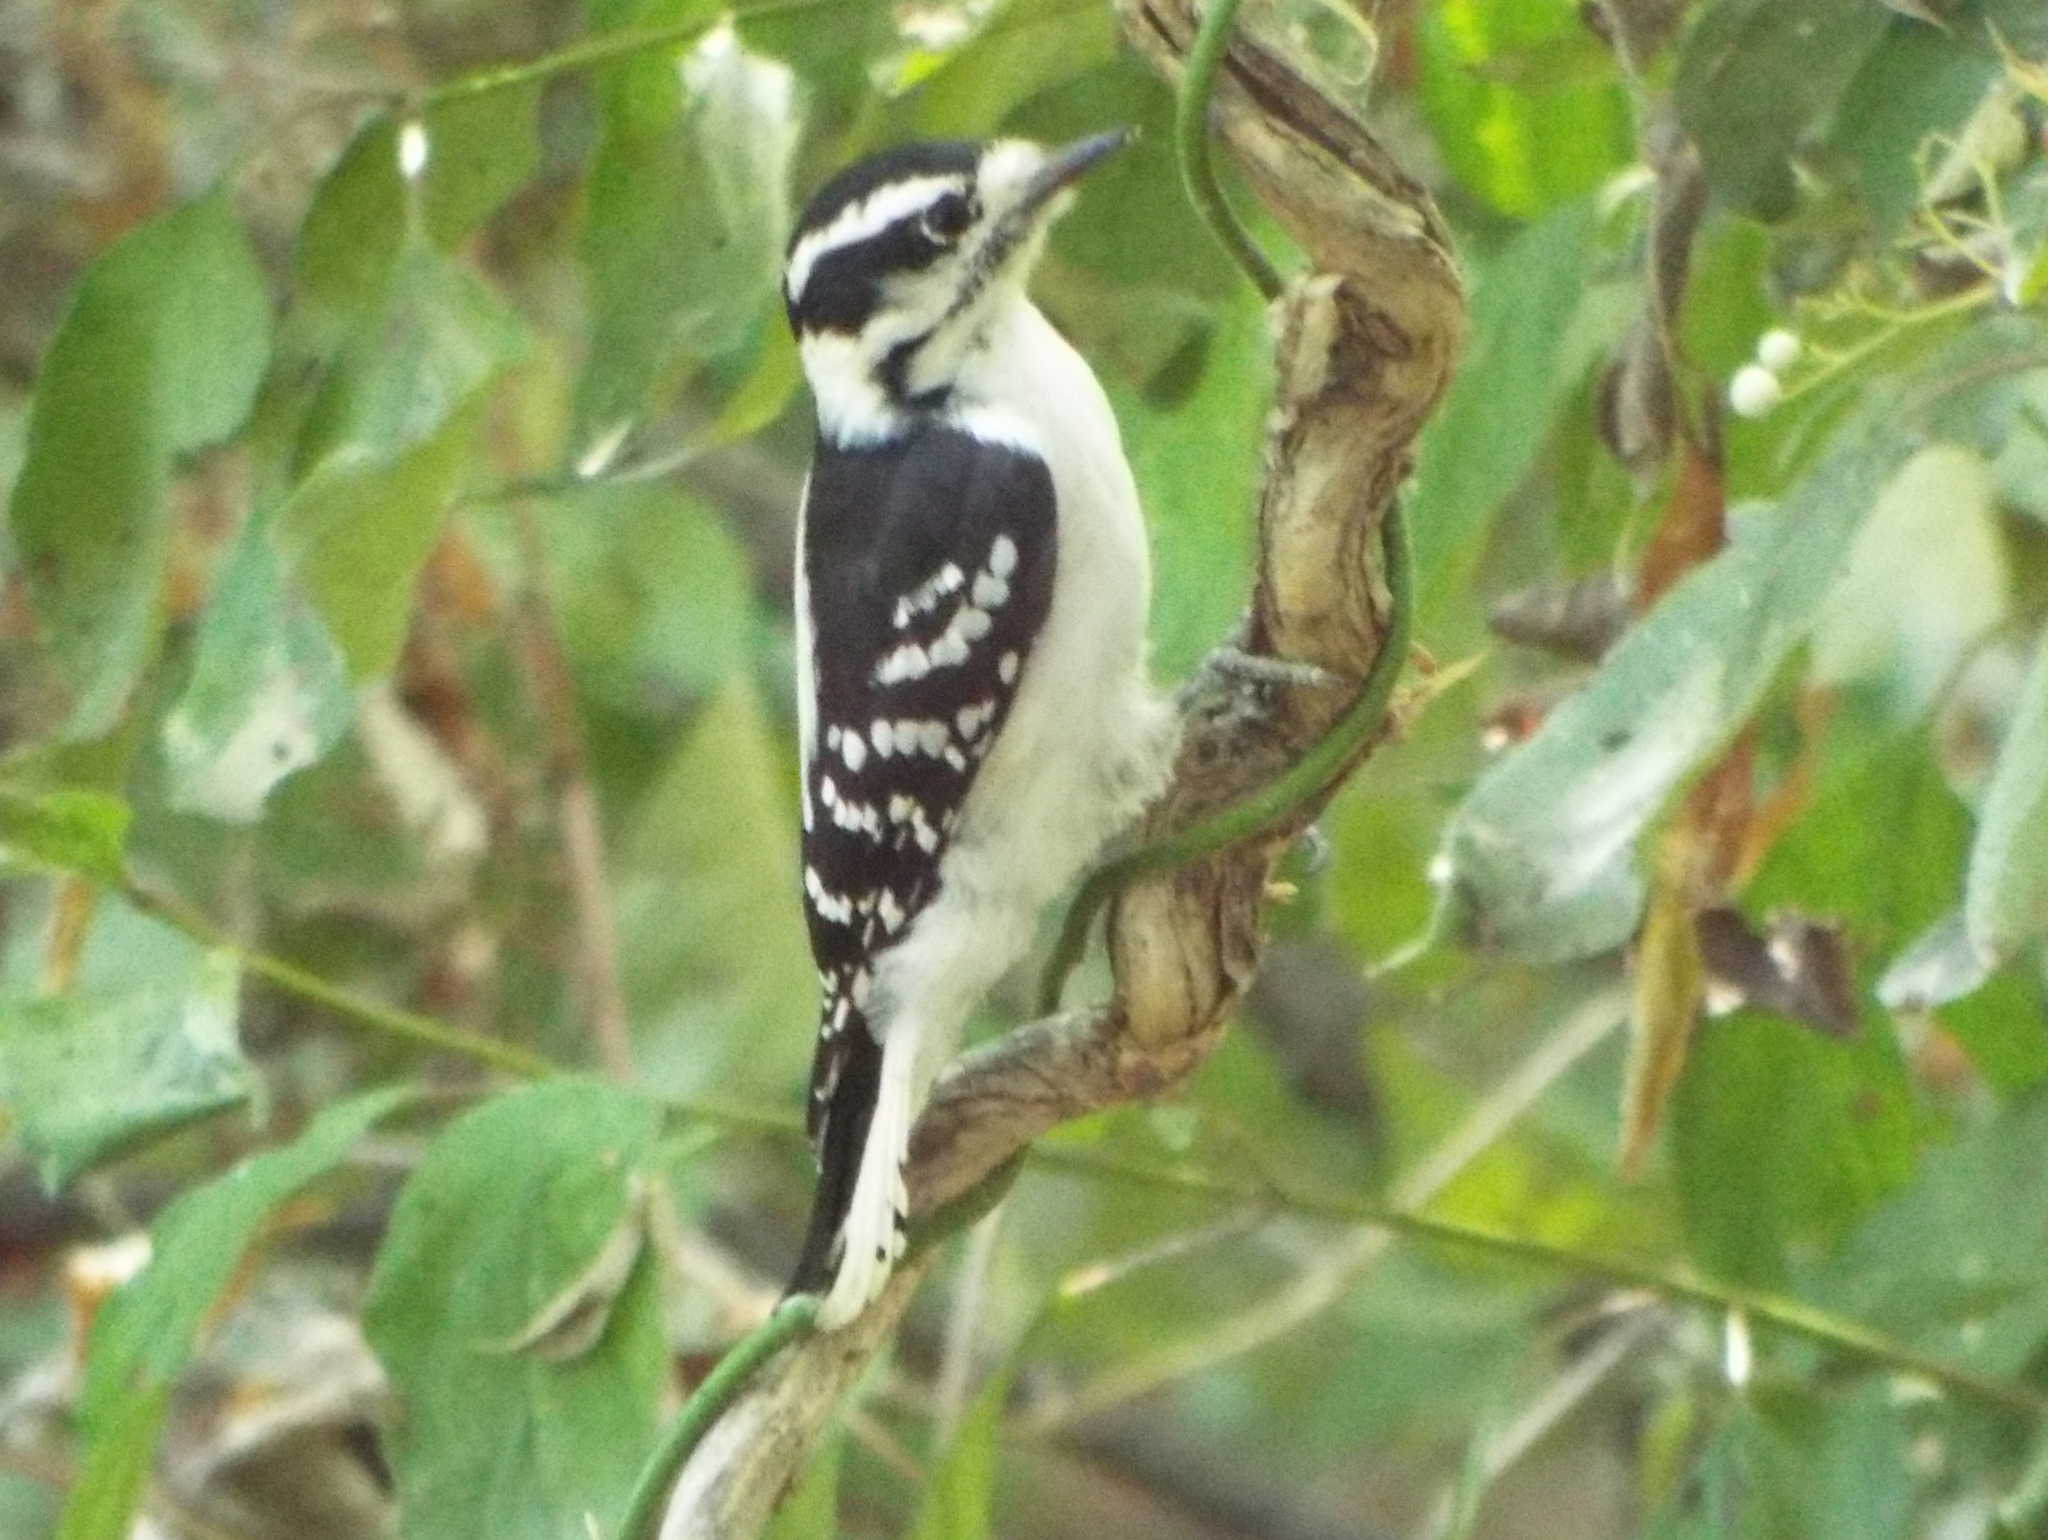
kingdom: Animalia
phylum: Chordata
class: Aves
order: Piciformes
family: Picidae
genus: Dryobates
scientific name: Dryobates pubescens
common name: Downy woodpecker
